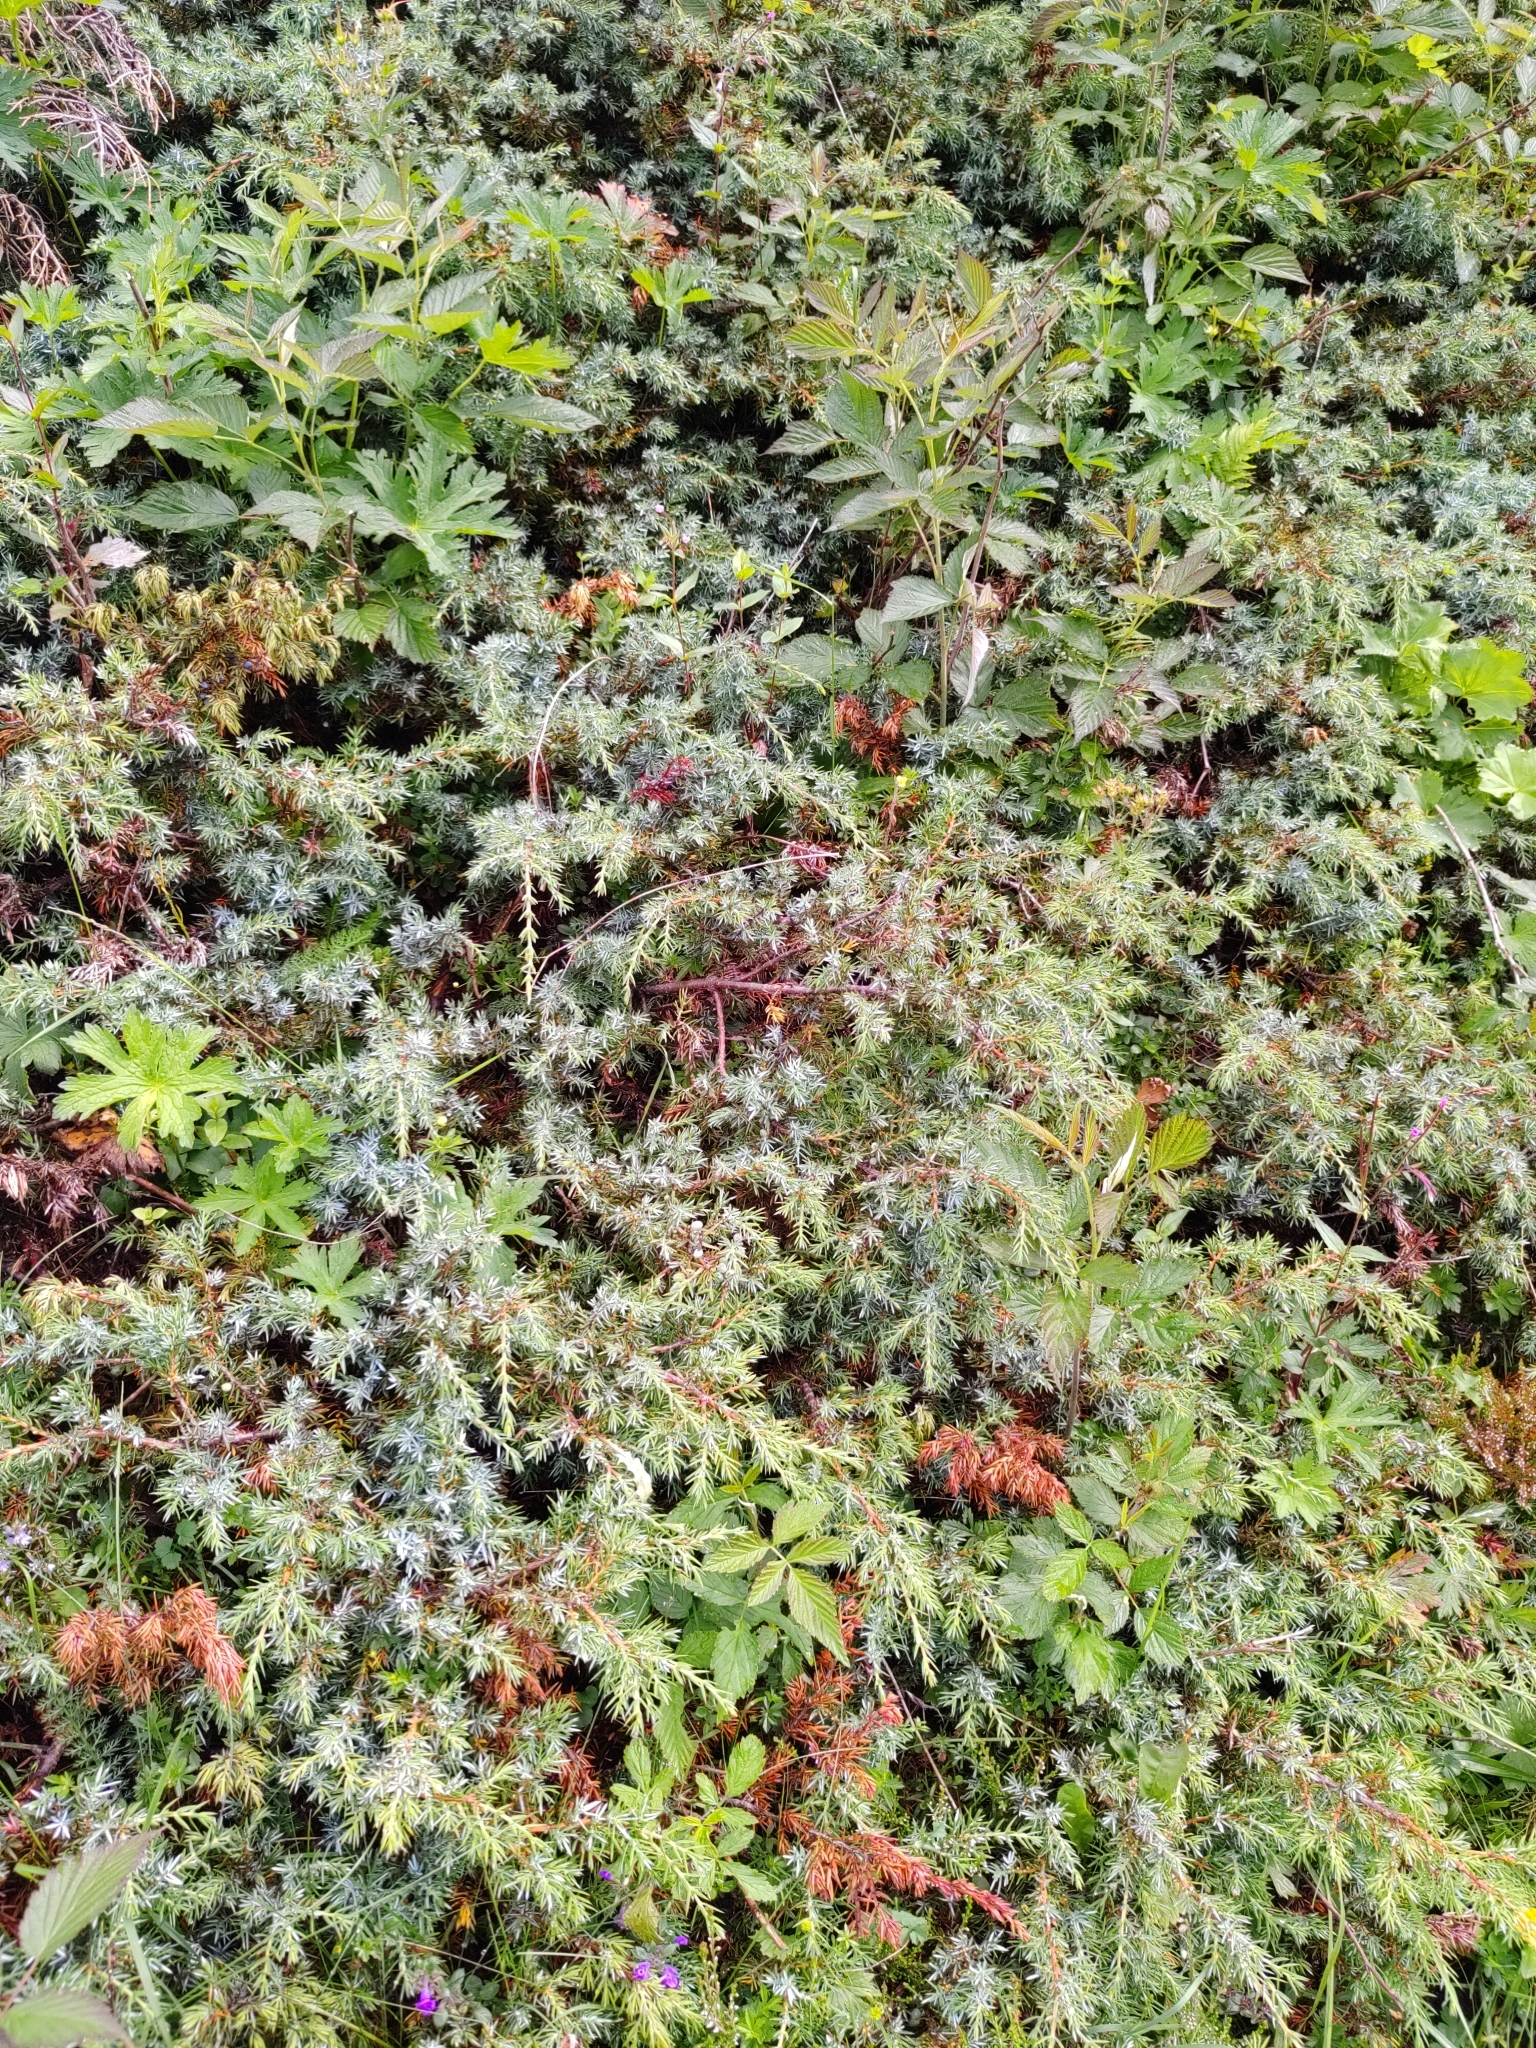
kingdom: Plantae
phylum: Tracheophyta
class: Pinopsida
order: Pinales
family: Cupressaceae
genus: Juniperus
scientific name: Juniperus communis
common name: Common juniper
